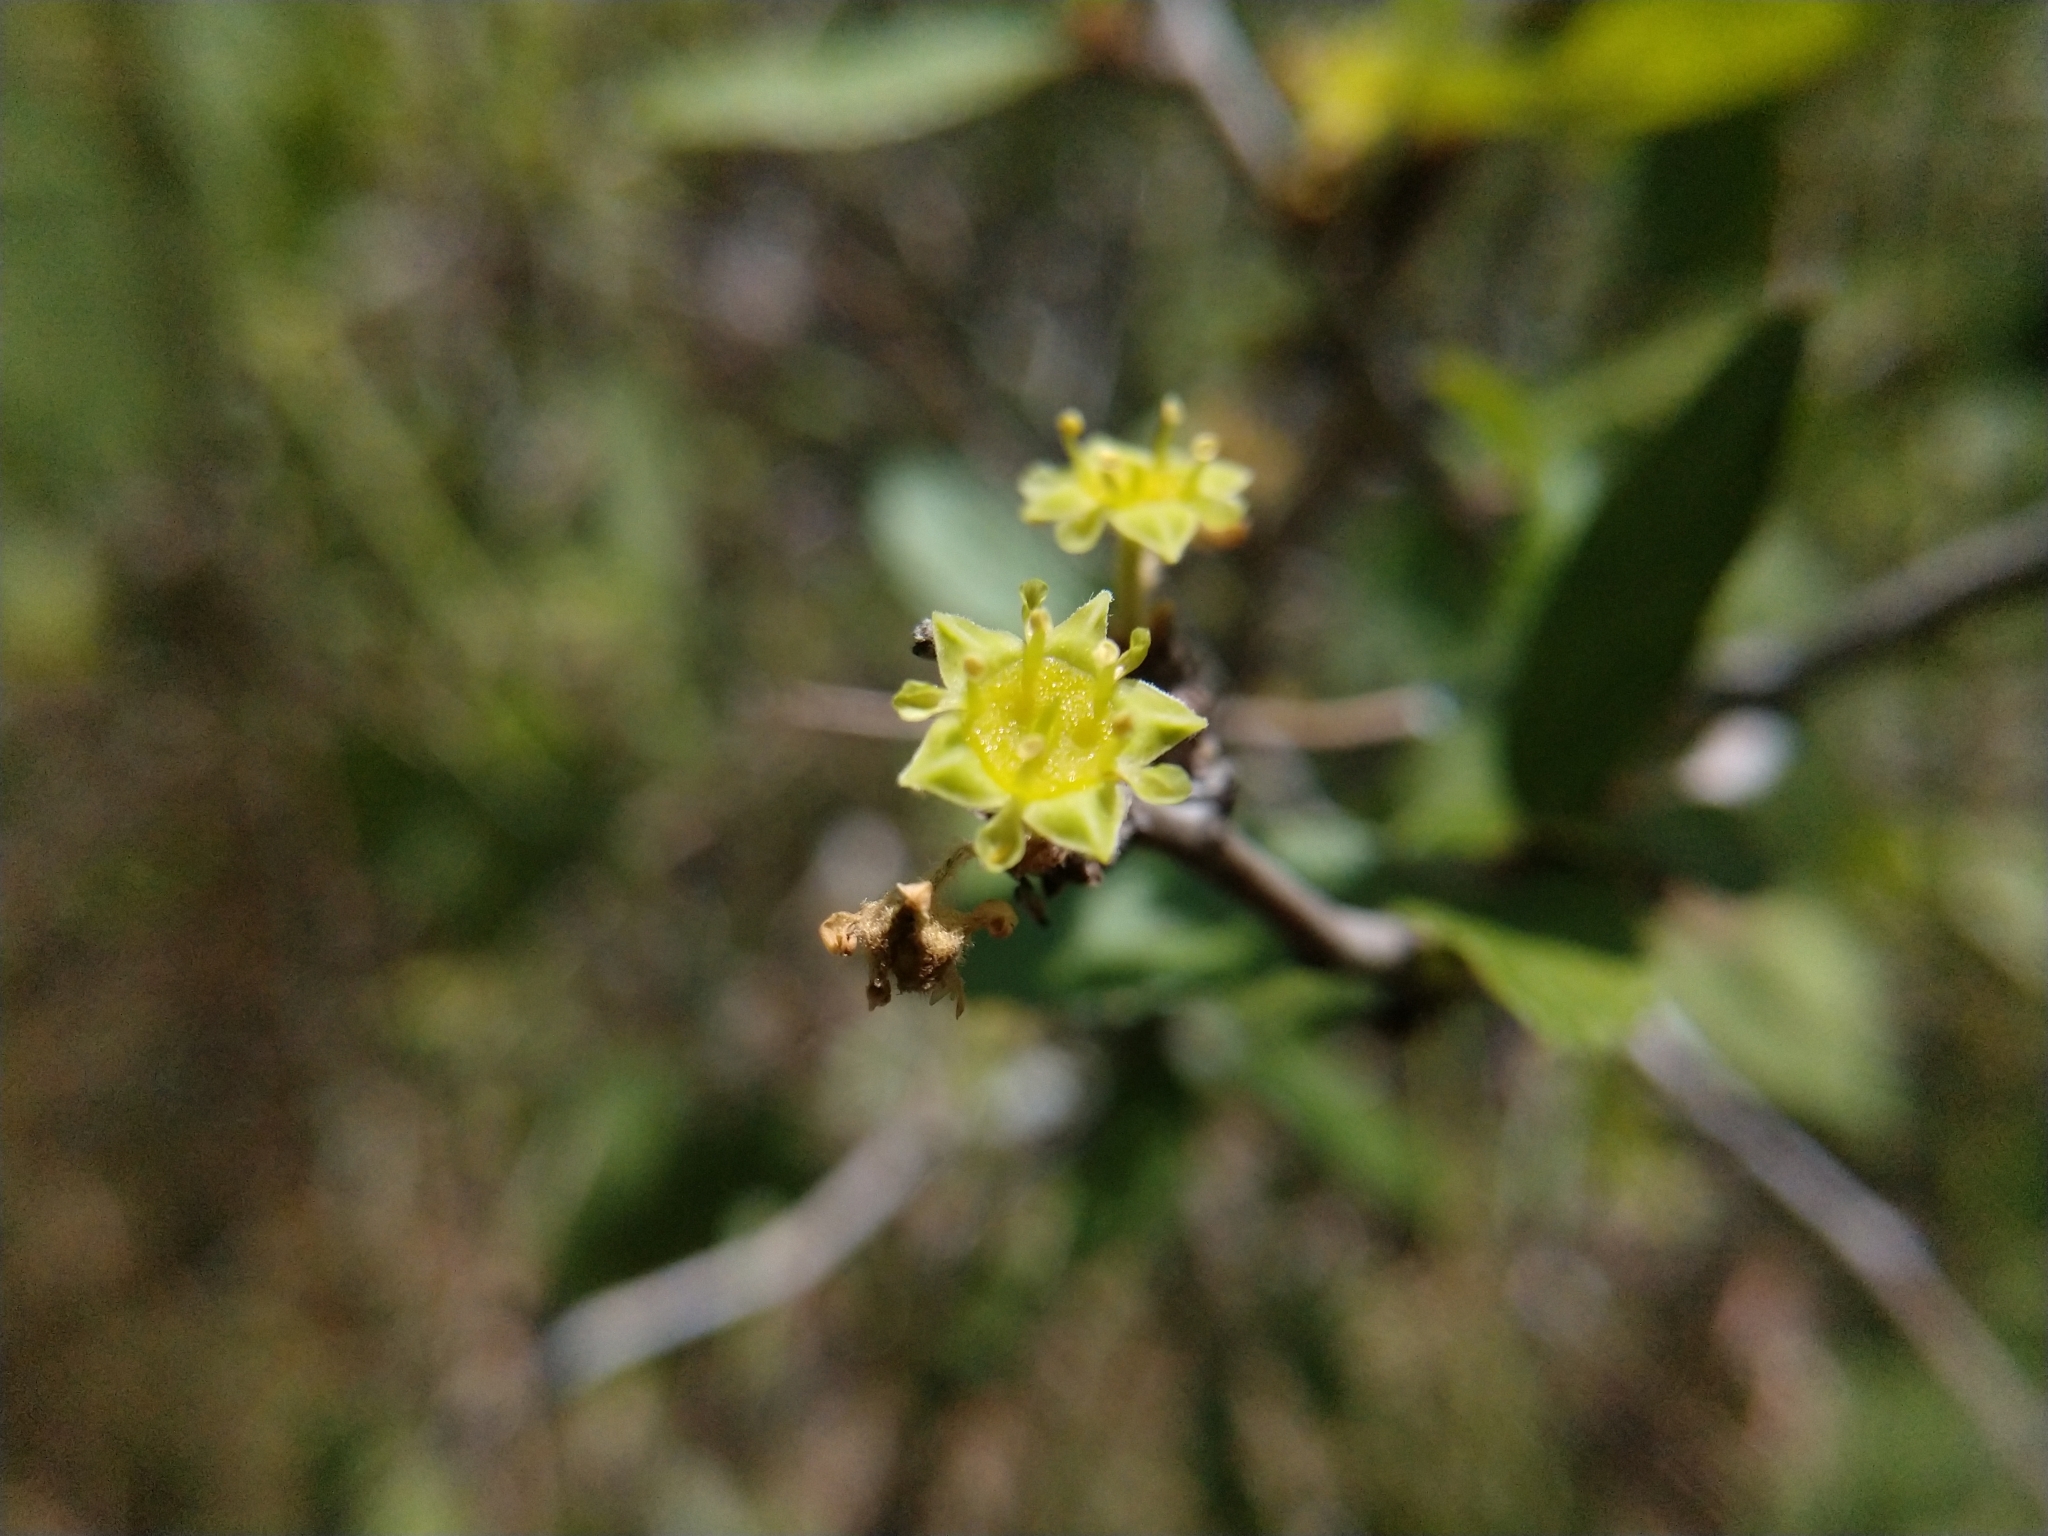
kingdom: Plantae
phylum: Tracheophyta
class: Magnoliopsida
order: Rosales
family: Rhamnaceae
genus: Colubrina
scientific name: Colubrina texensis
